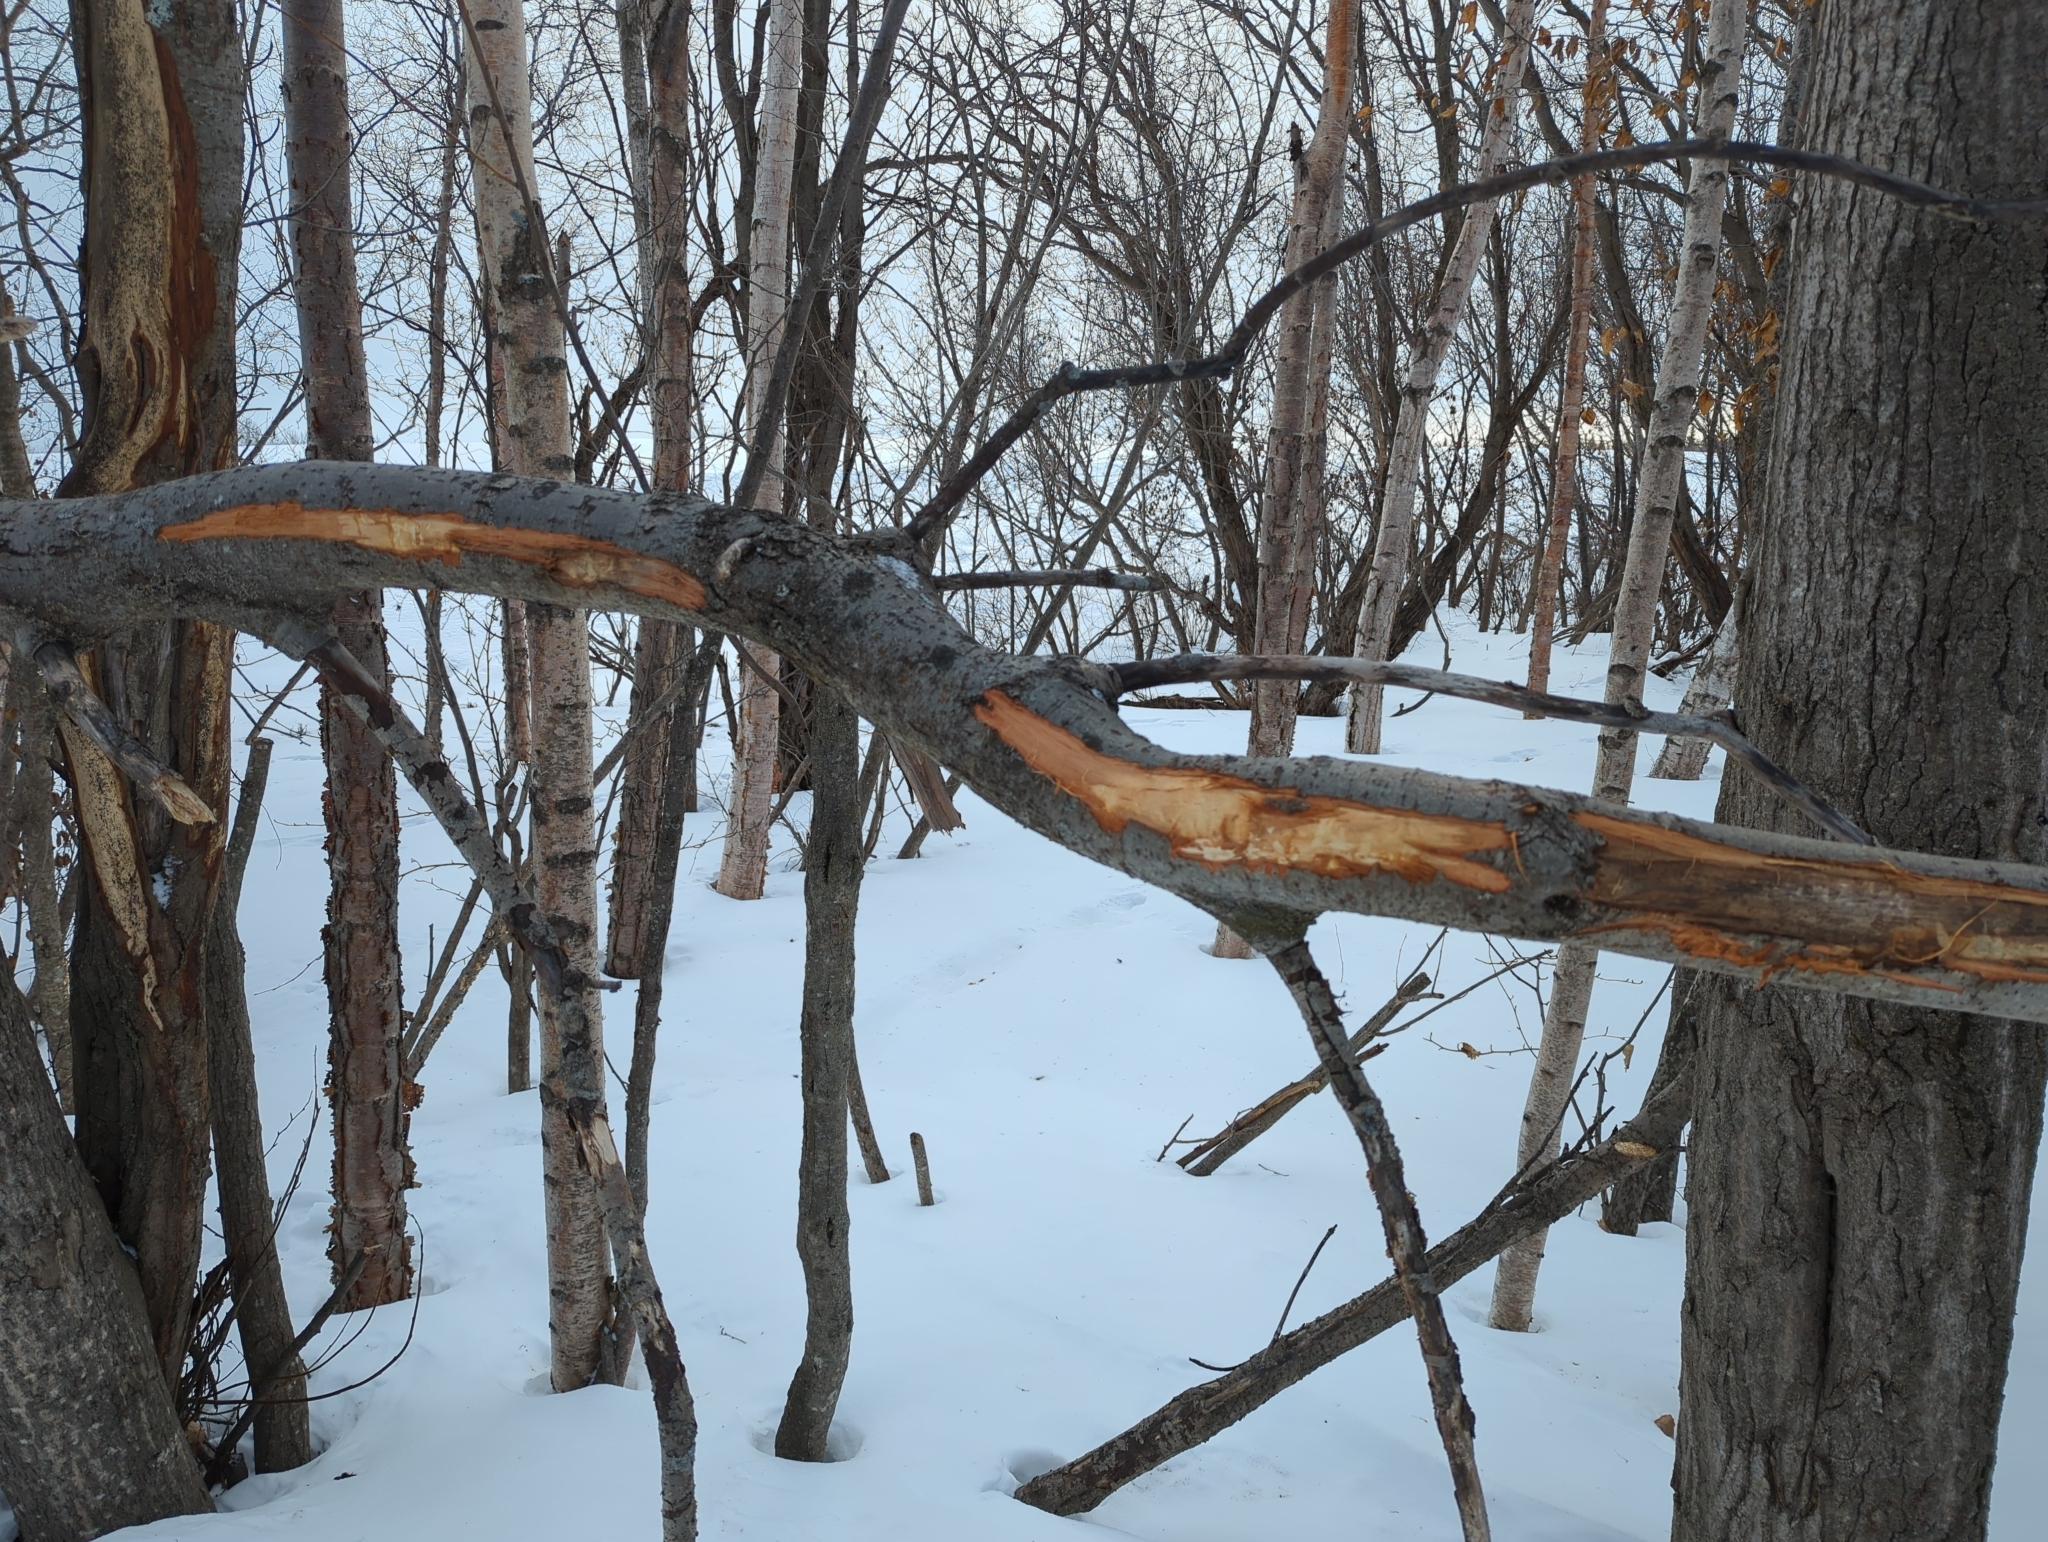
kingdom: Animalia
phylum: Chordata
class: Mammalia
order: Artiodactyla
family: Cervidae
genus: Alces
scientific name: Alces alces
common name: Moose
